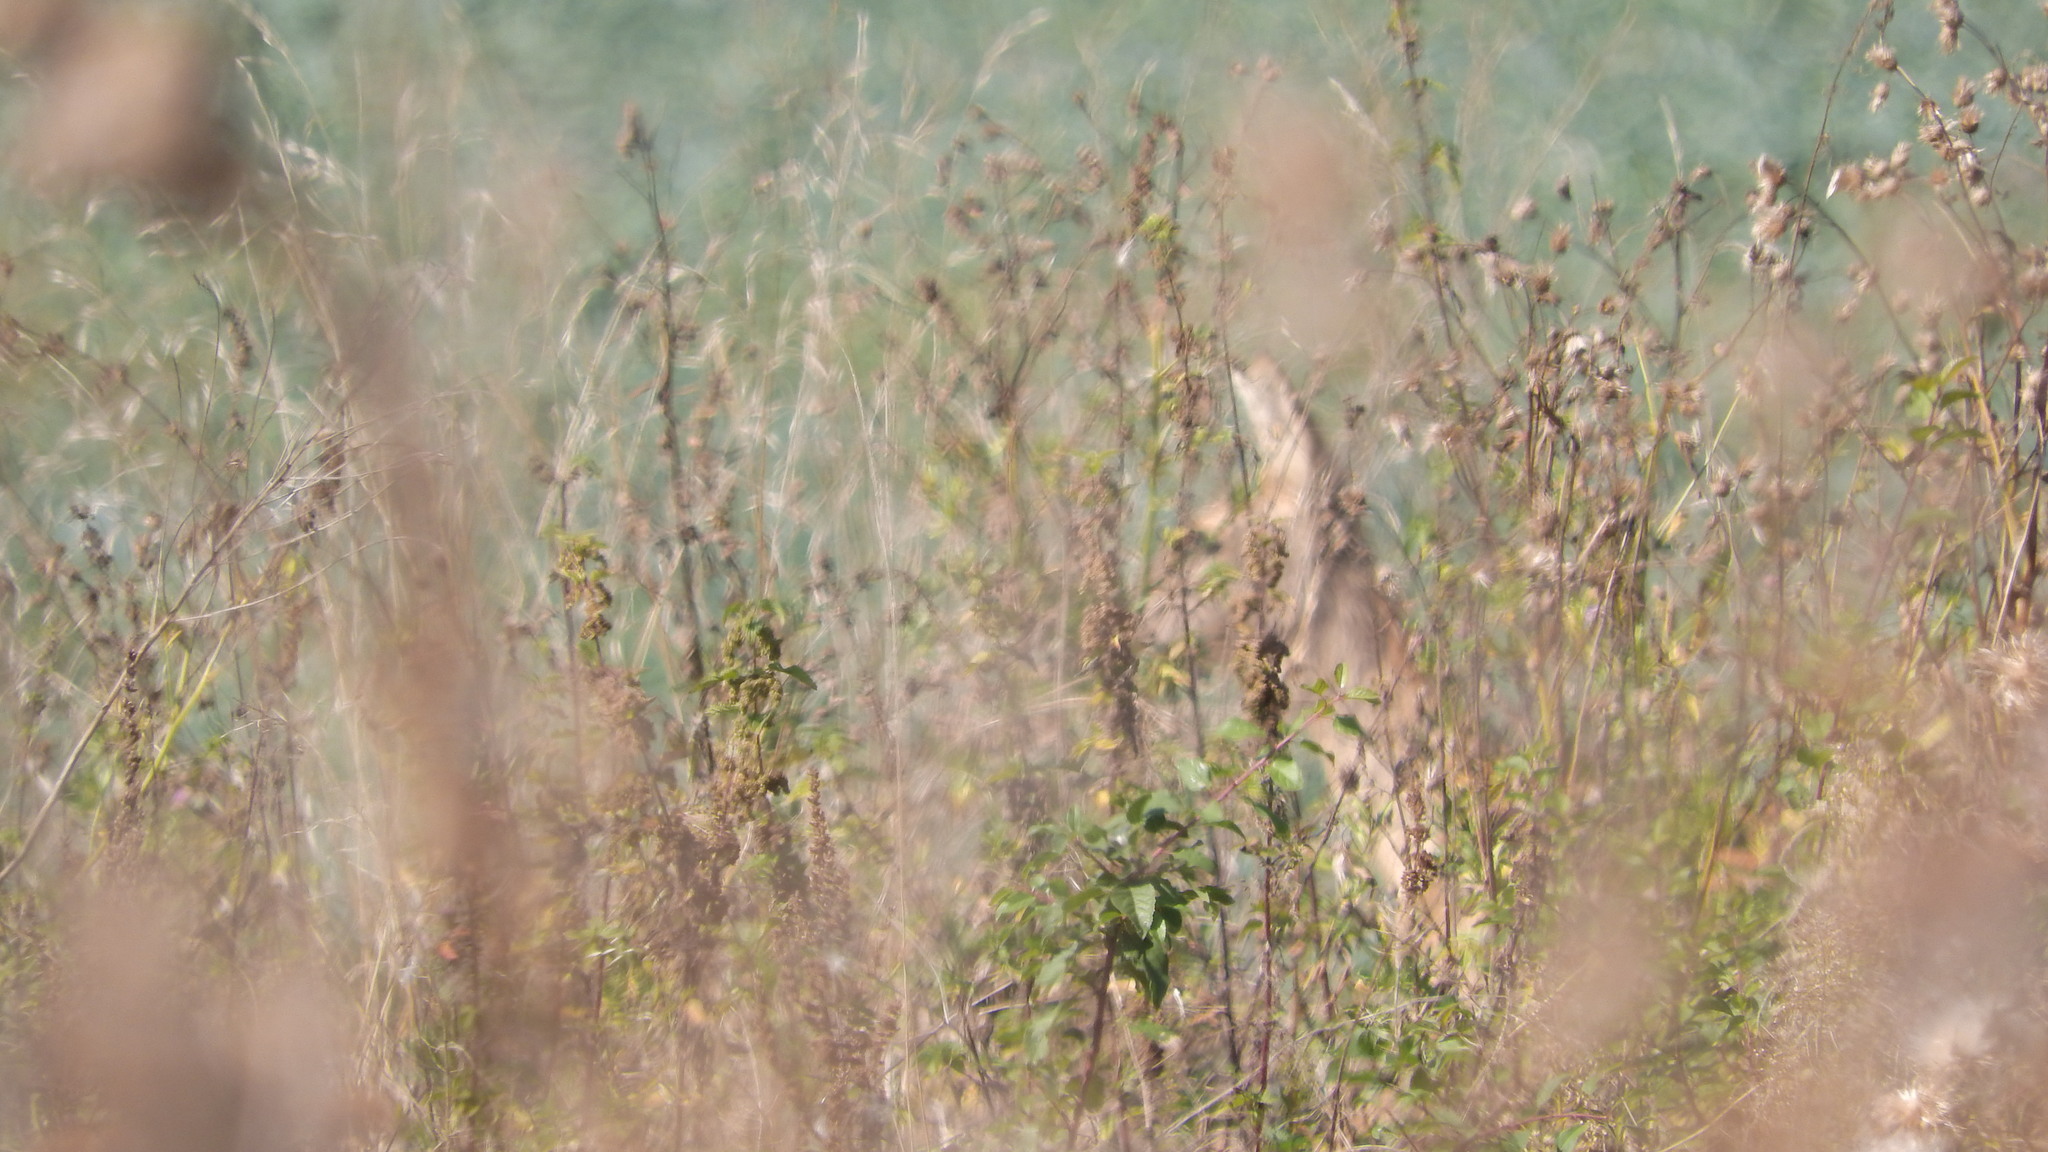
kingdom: Animalia
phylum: Chordata
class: Mammalia
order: Artiodactyla
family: Cervidae
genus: Capreolus
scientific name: Capreolus capreolus
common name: Western roe deer
